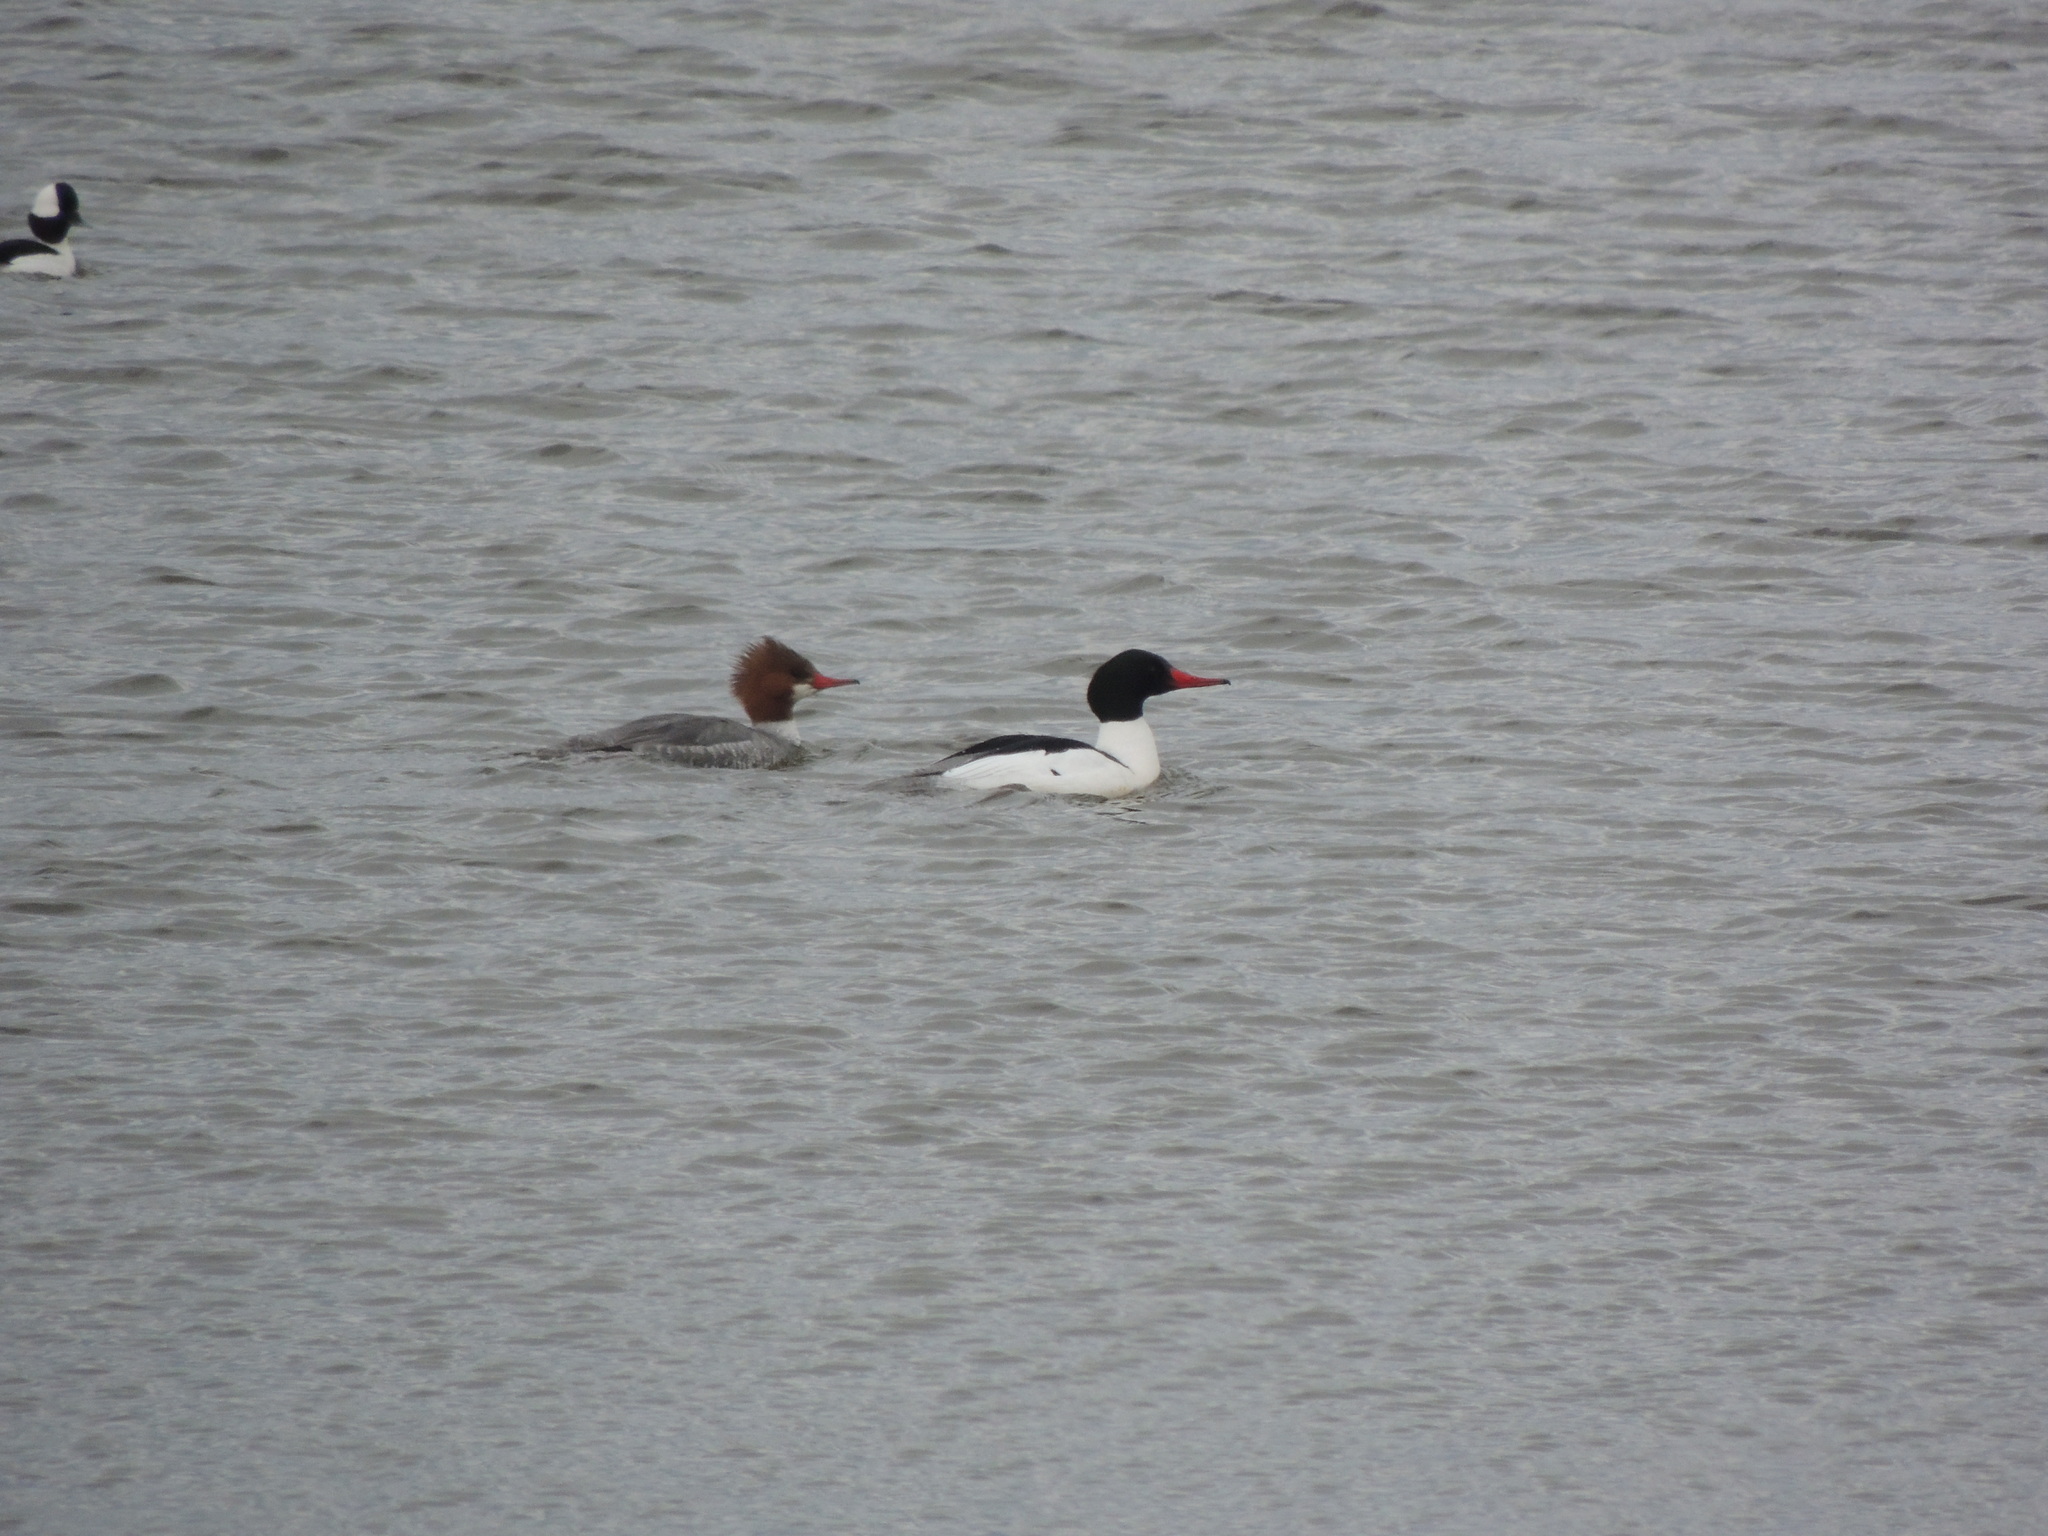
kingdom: Animalia
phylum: Chordata
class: Aves
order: Anseriformes
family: Anatidae
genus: Mergus
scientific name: Mergus merganser
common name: Common merganser
